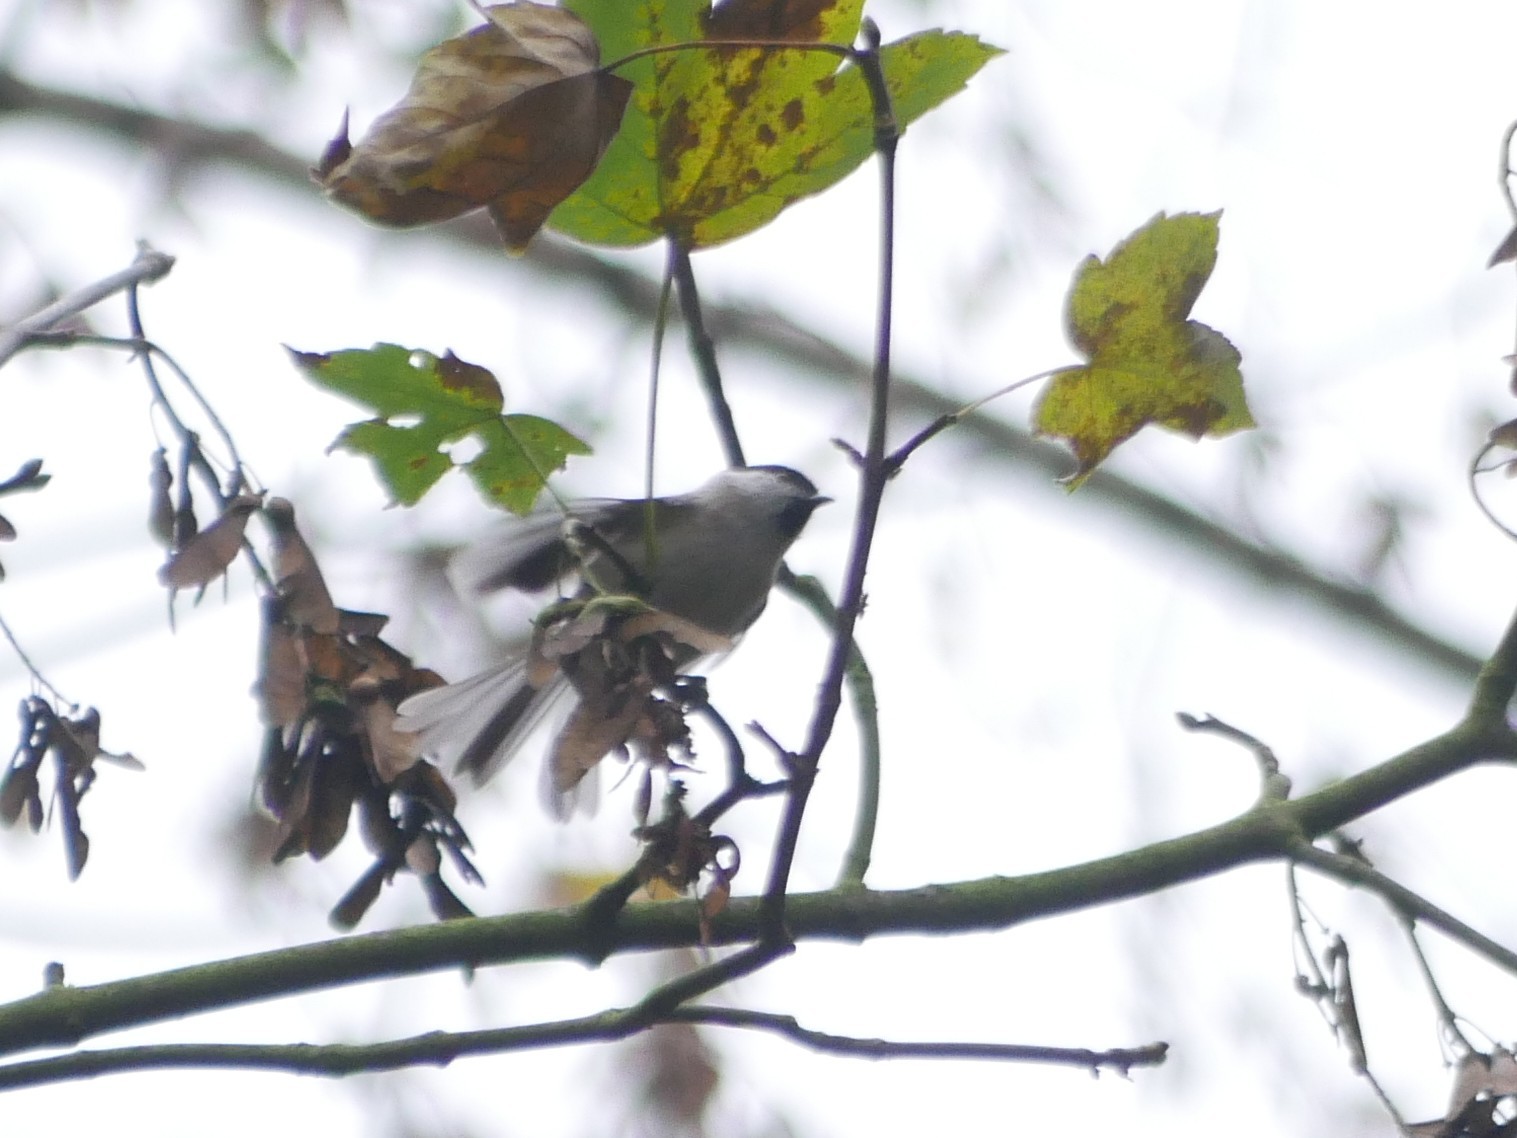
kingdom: Animalia
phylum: Chordata
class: Aves
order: Passeriformes
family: Paridae
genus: Poecile
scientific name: Poecile montanus
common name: Willow tit
